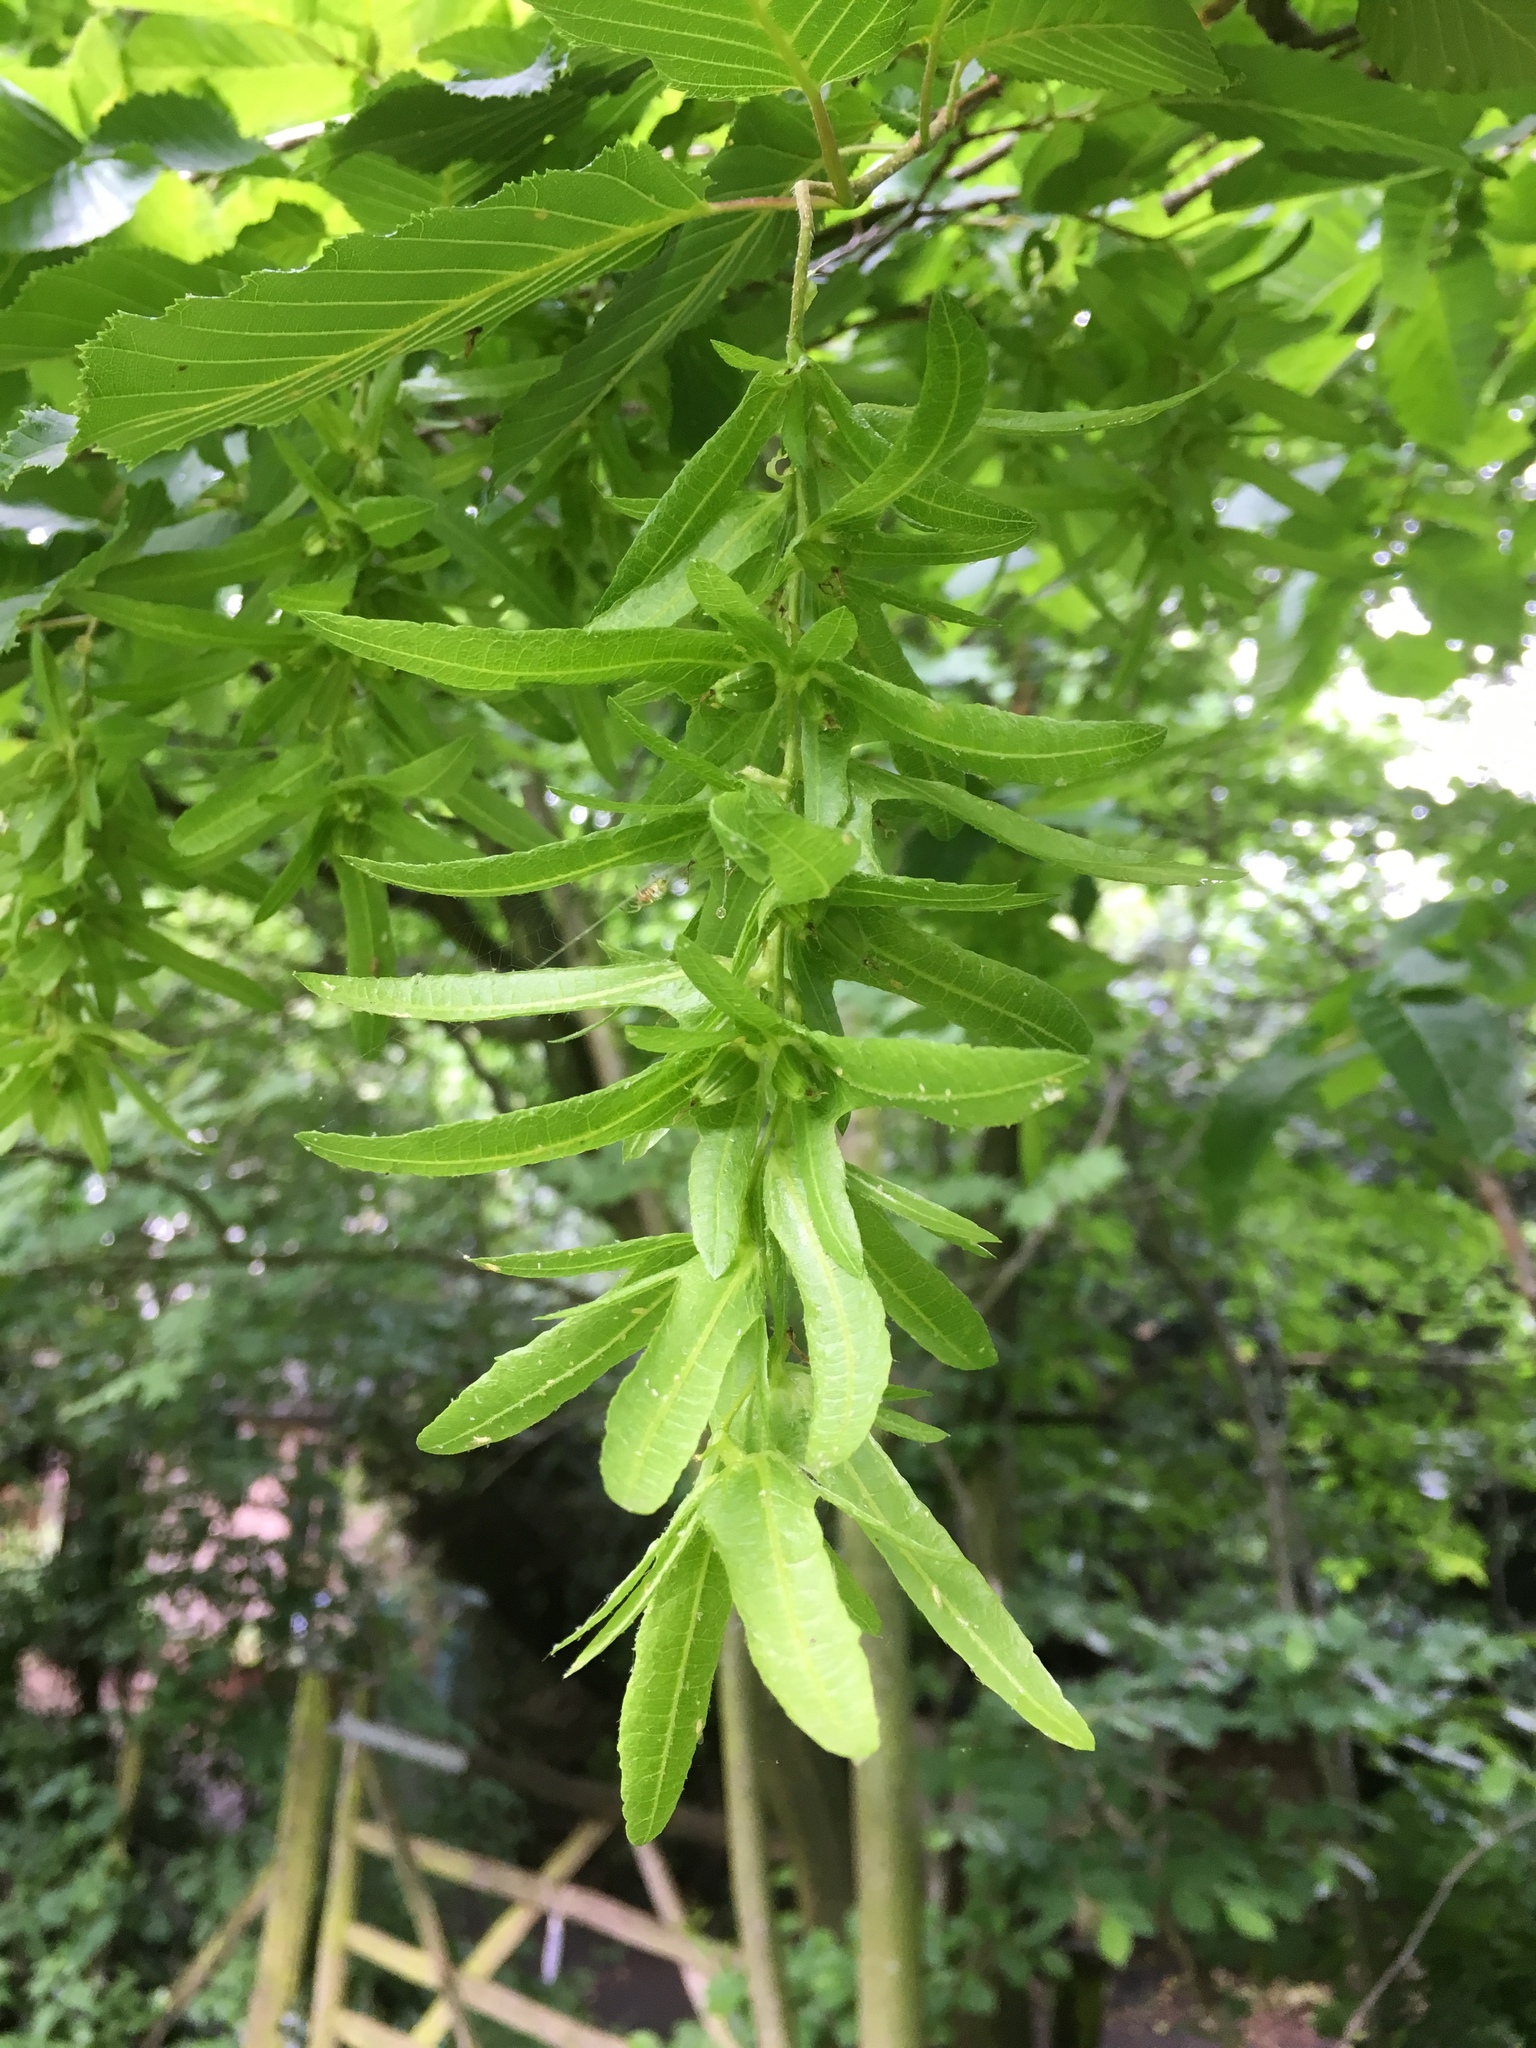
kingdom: Plantae
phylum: Tracheophyta
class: Magnoliopsida
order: Fagales
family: Betulaceae
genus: Carpinus
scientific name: Carpinus betulus
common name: Hornbeam
